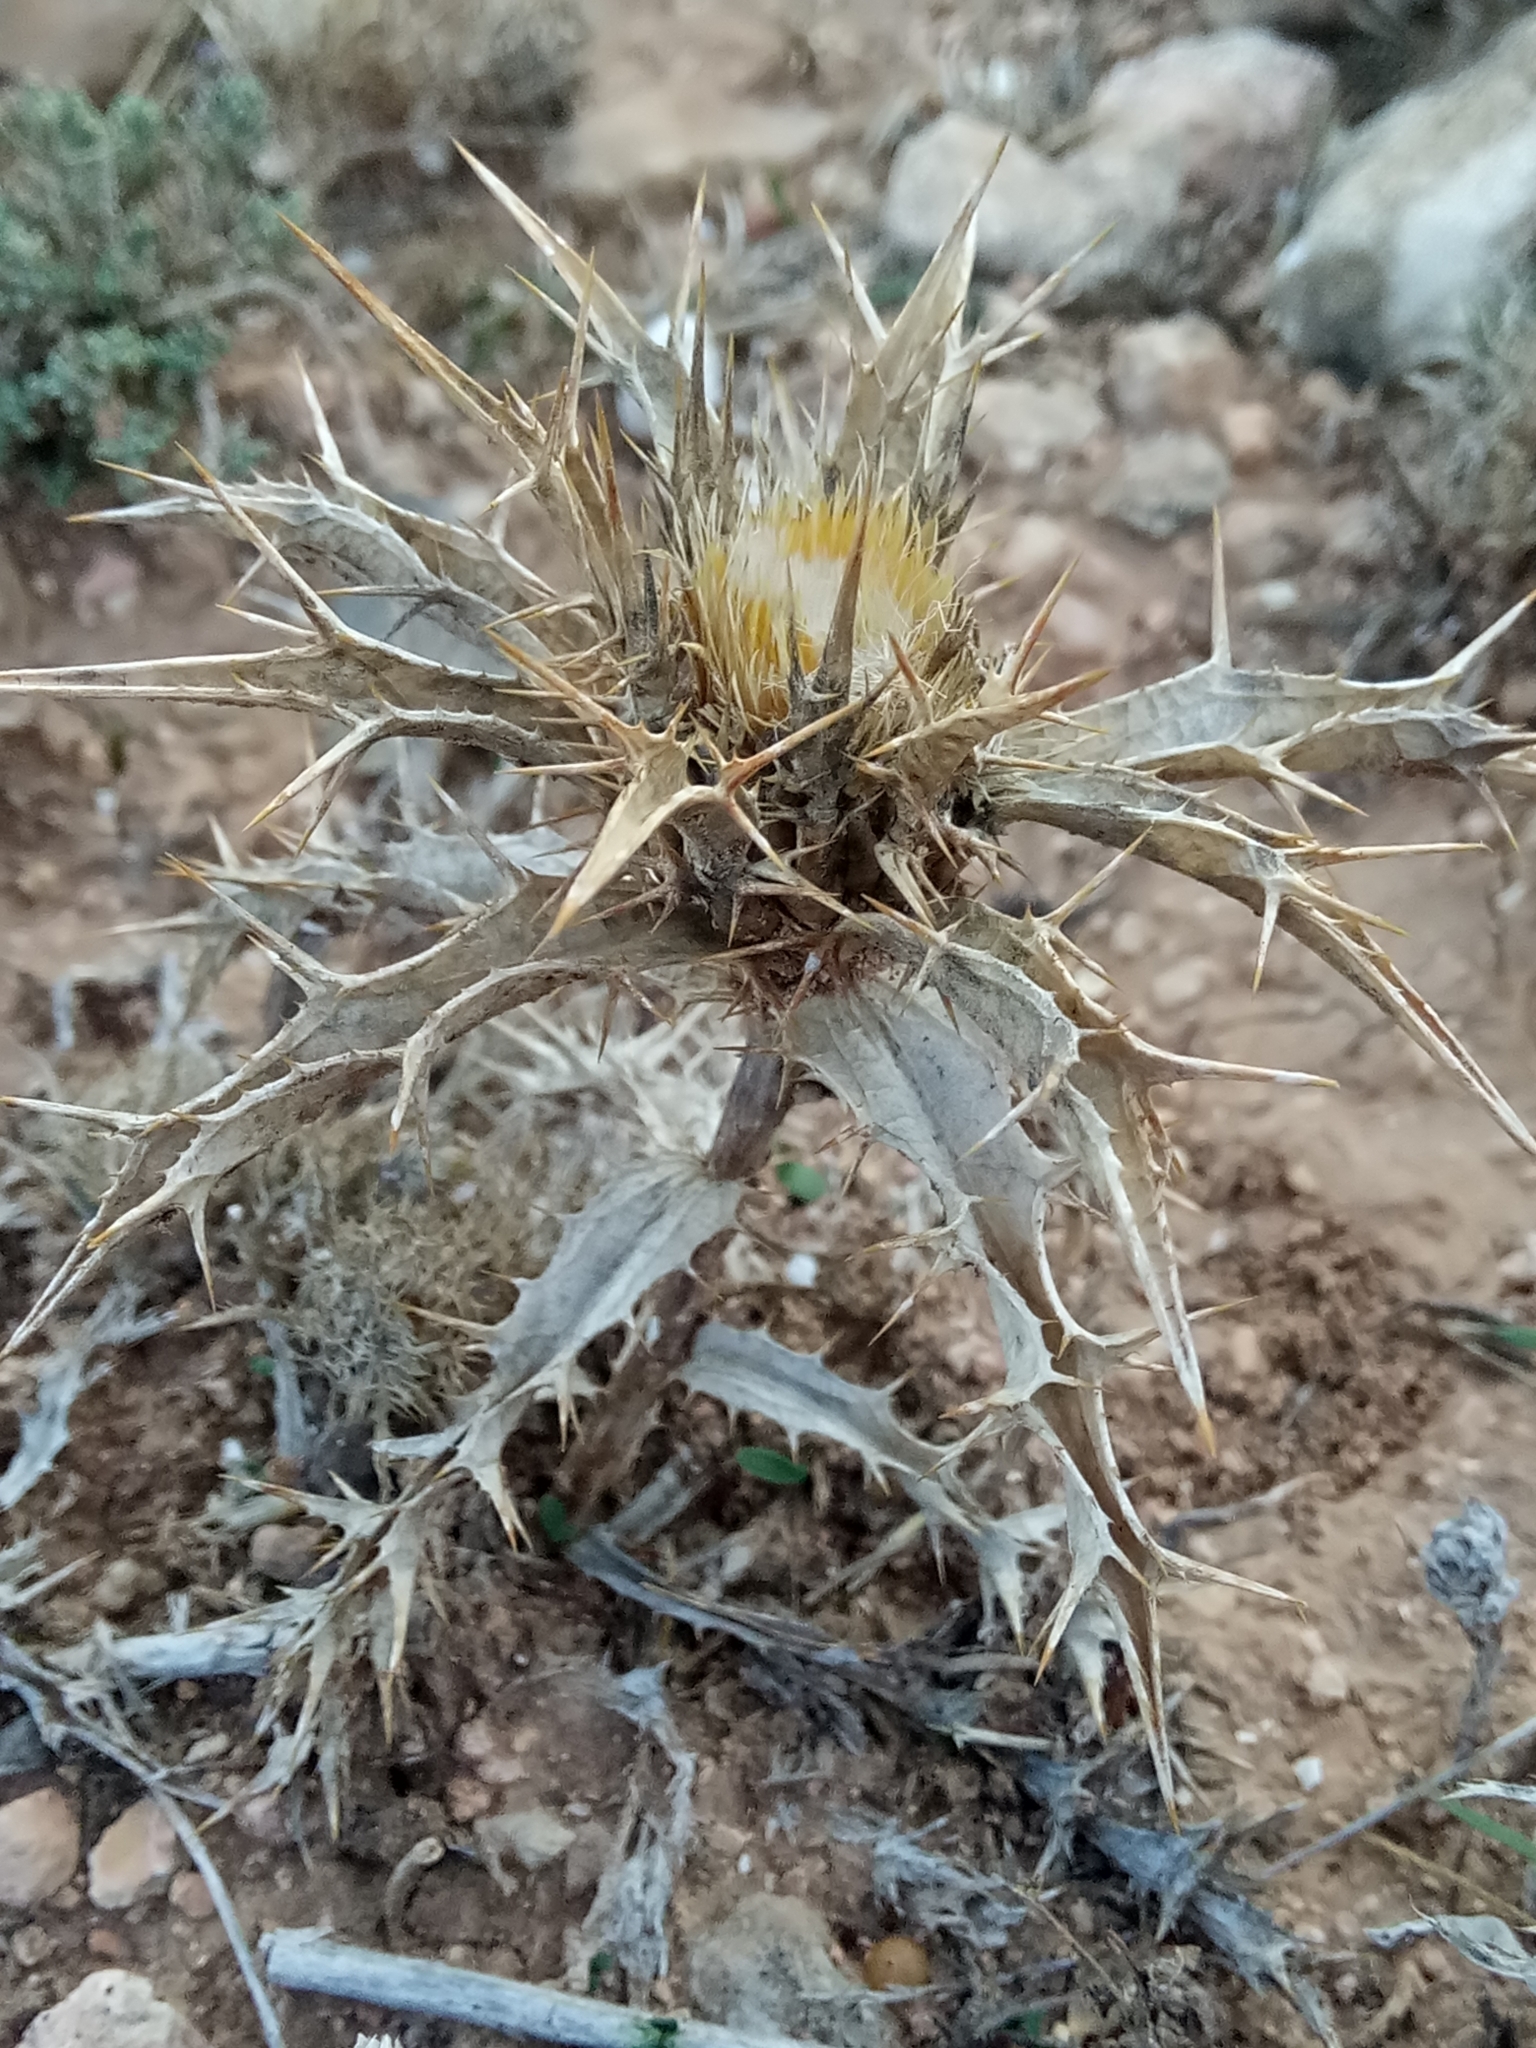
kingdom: Plantae
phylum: Tracheophyta
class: Magnoliopsida
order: Asterales
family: Asteraceae
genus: Carlina
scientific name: Carlina lanata
